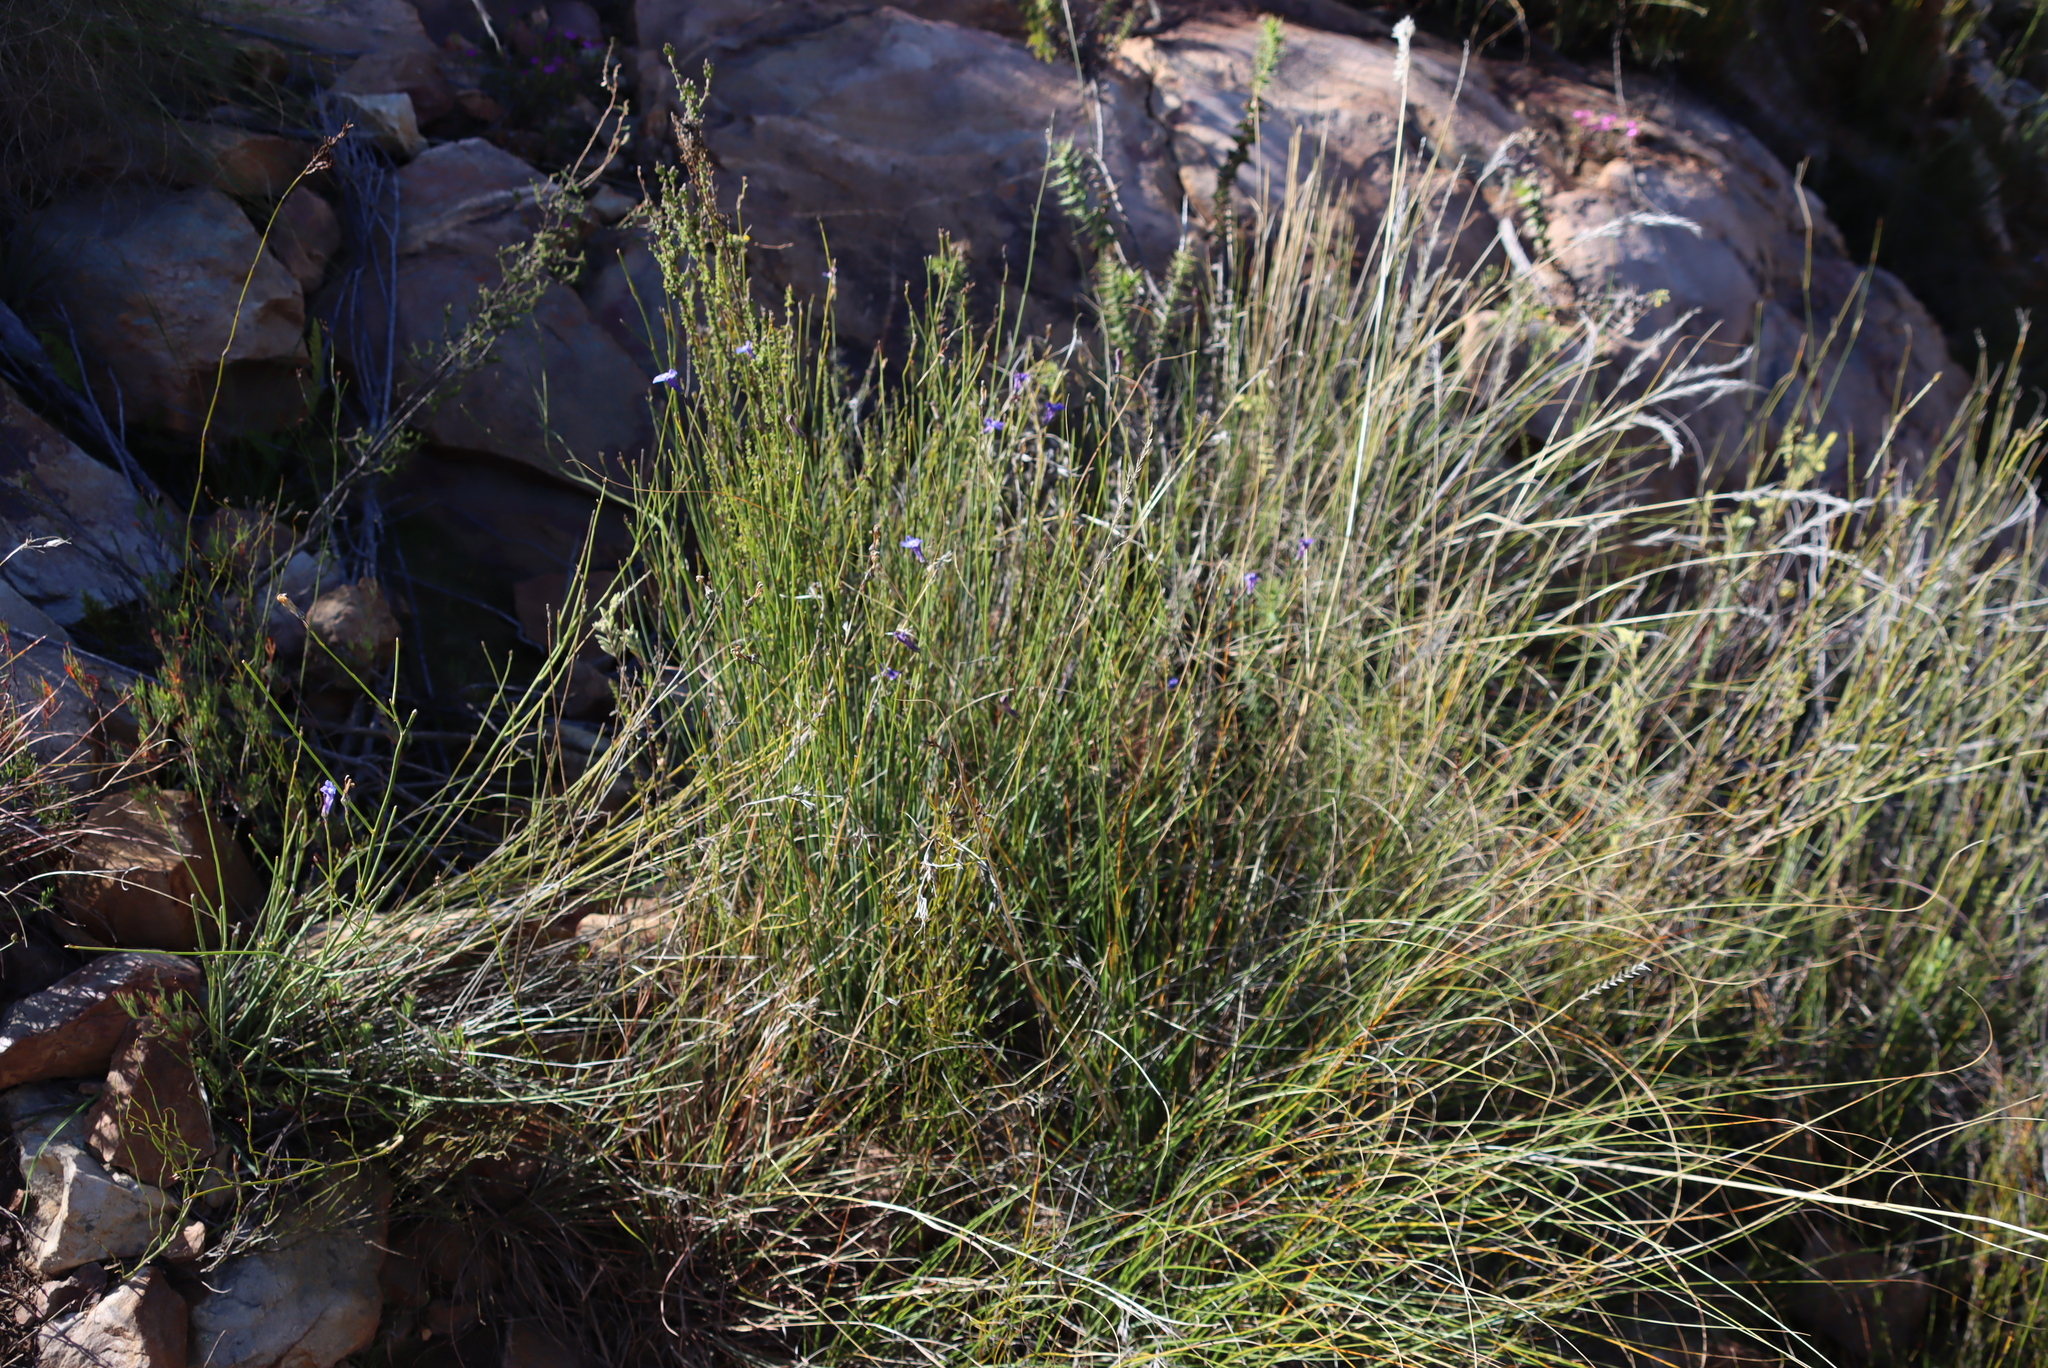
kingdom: Plantae
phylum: Tracheophyta
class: Magnoliopsida
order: Asterales
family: Campanulaceae
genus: Lobelia
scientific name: Lobelia linearis
